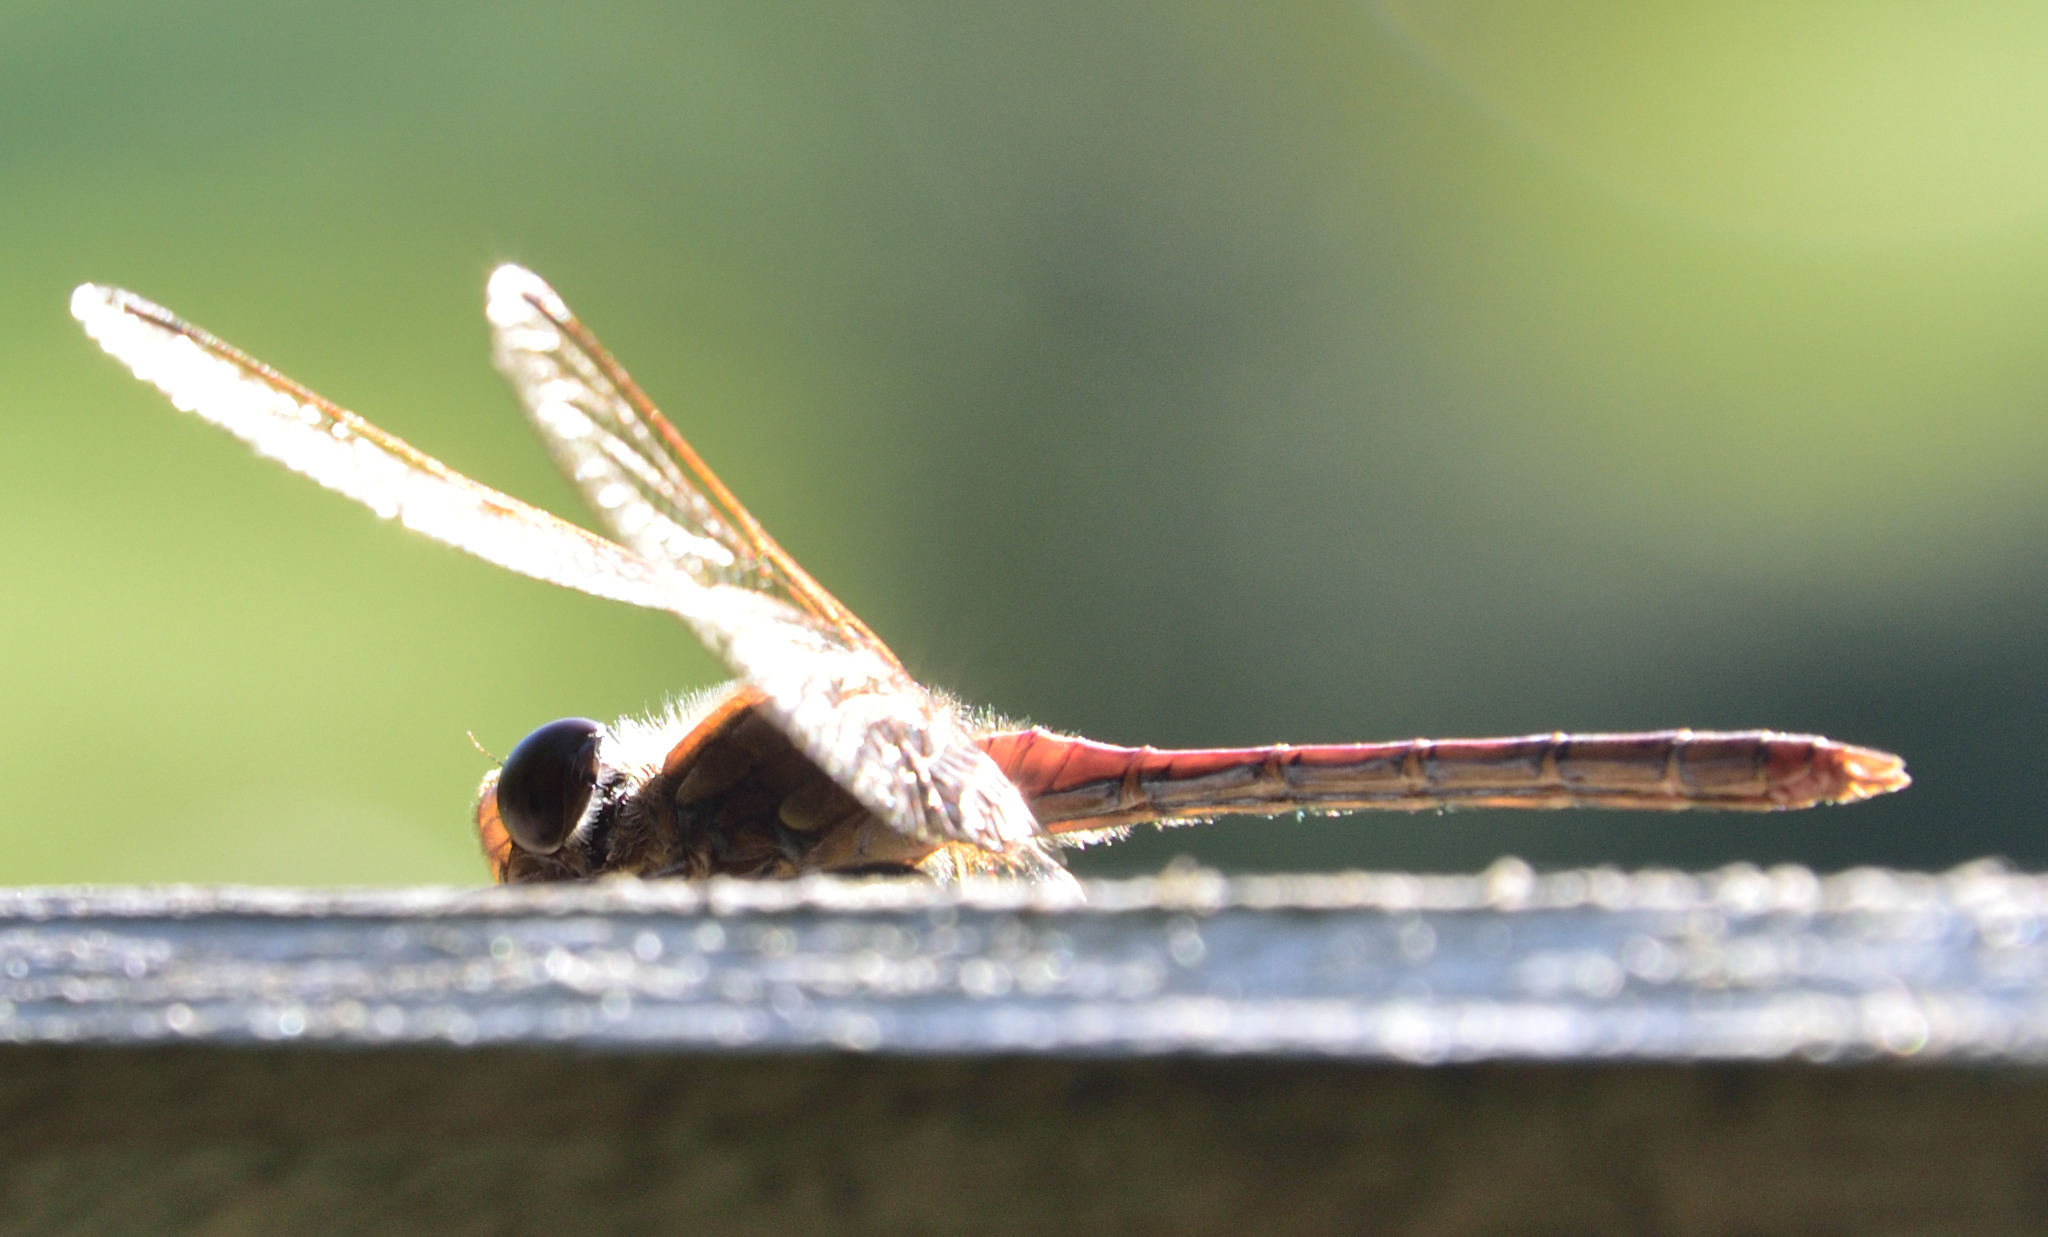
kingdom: Animalia
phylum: Arthropoda
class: Insecta
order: Odonata
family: Libellulidae
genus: Sympetrum
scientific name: Sympetrum striolatum
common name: Common darter
